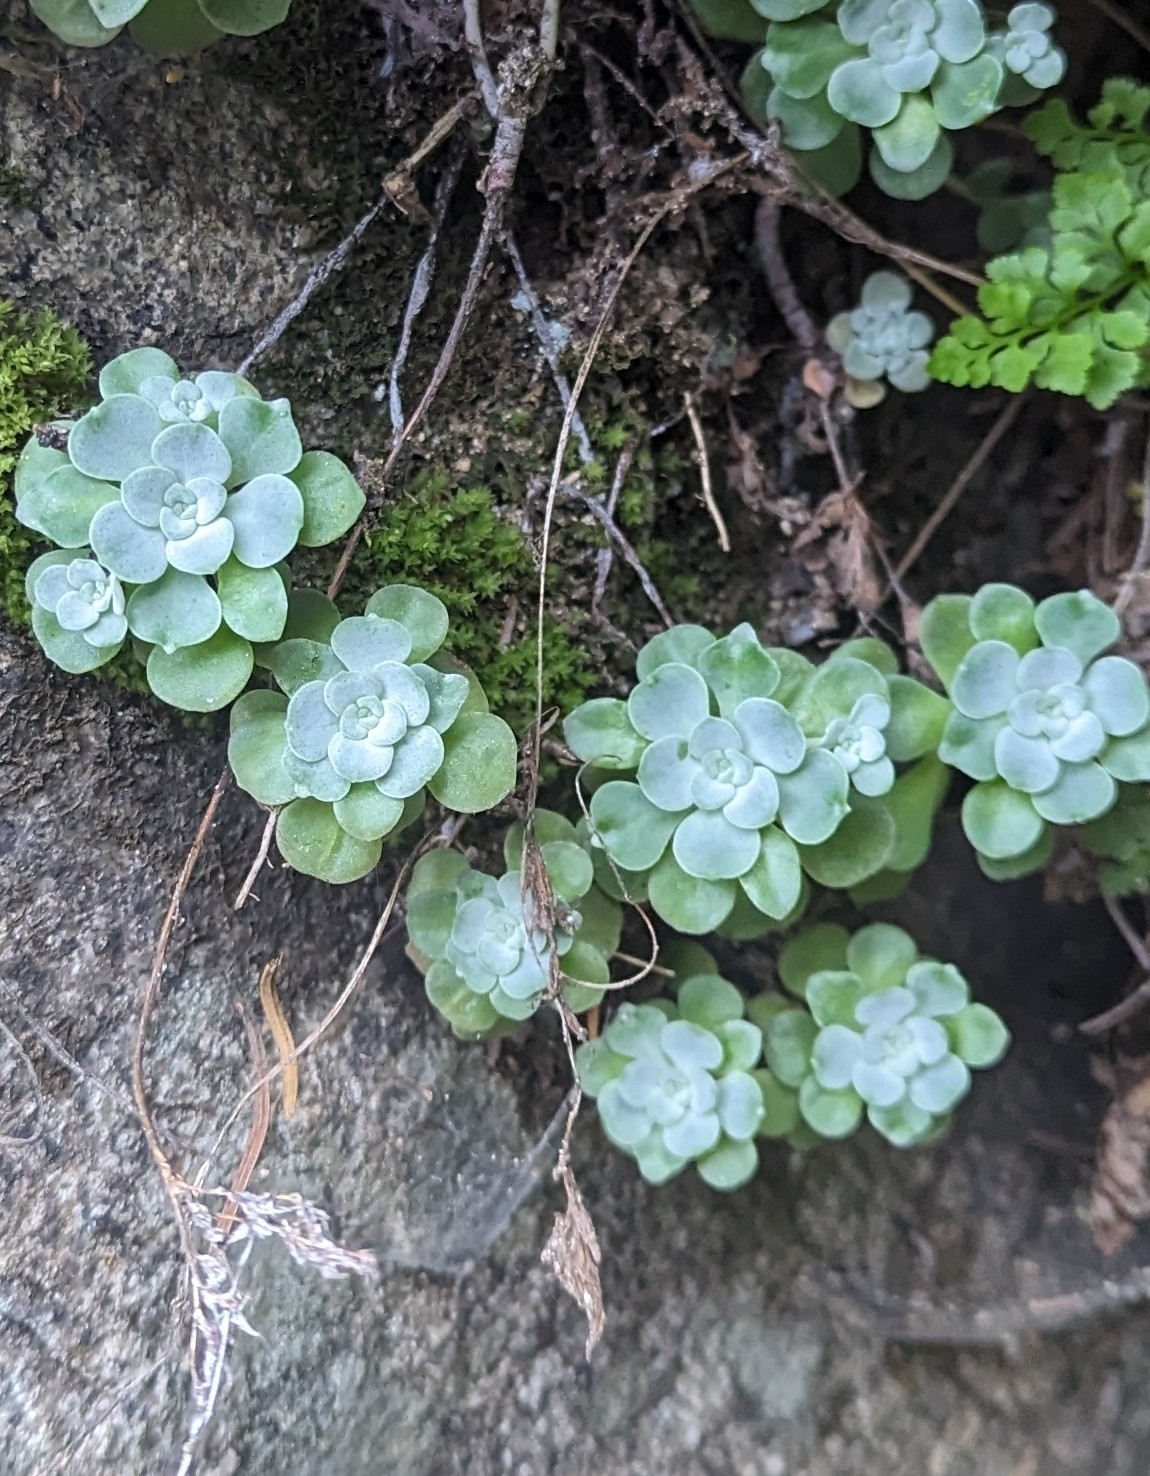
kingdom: Plantae
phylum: Tracheophyta
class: Magnoliopsida
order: Saxifragales
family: Crassulaceae
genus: Sedum
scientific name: Sedum spathulifolium
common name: Colorado stonecrop
